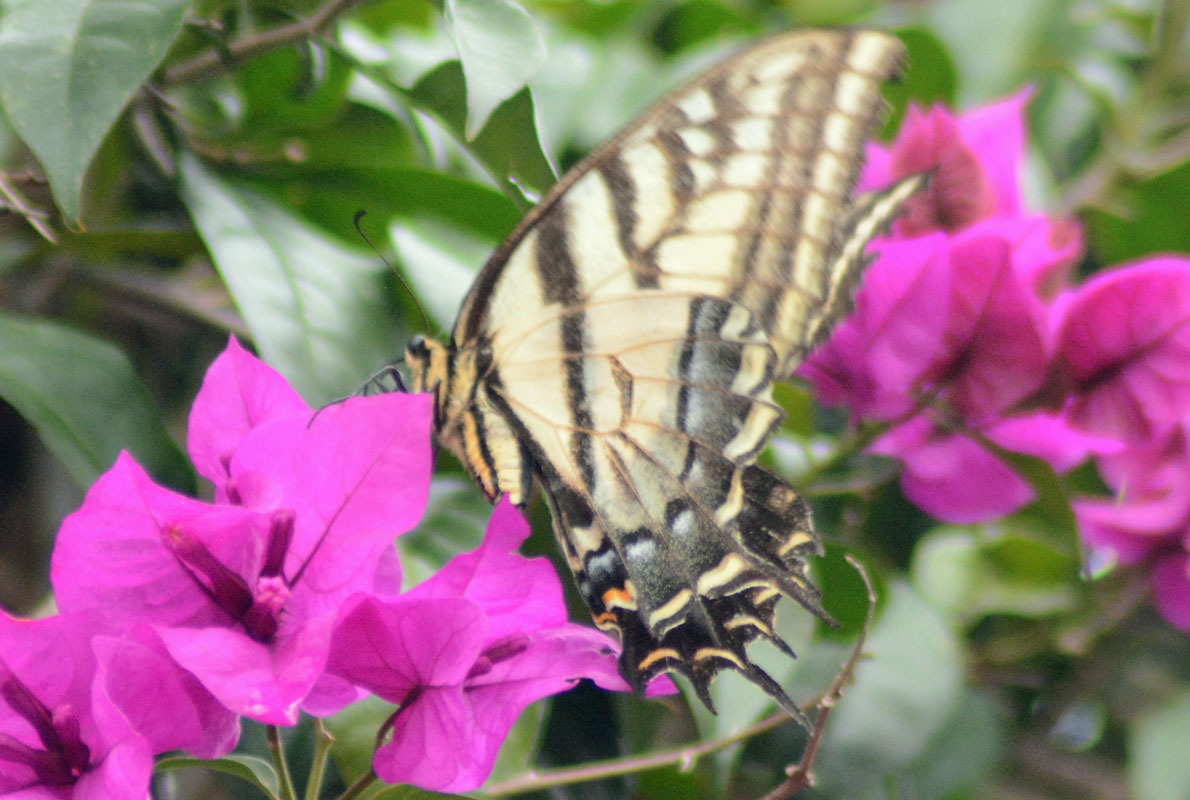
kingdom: Animalia
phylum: Arthropoda
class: Insecta
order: Lepidoptera
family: Papilionidae
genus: Papilio
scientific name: Papilio multicaudata
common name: Two-tailed tiger swallowtail
